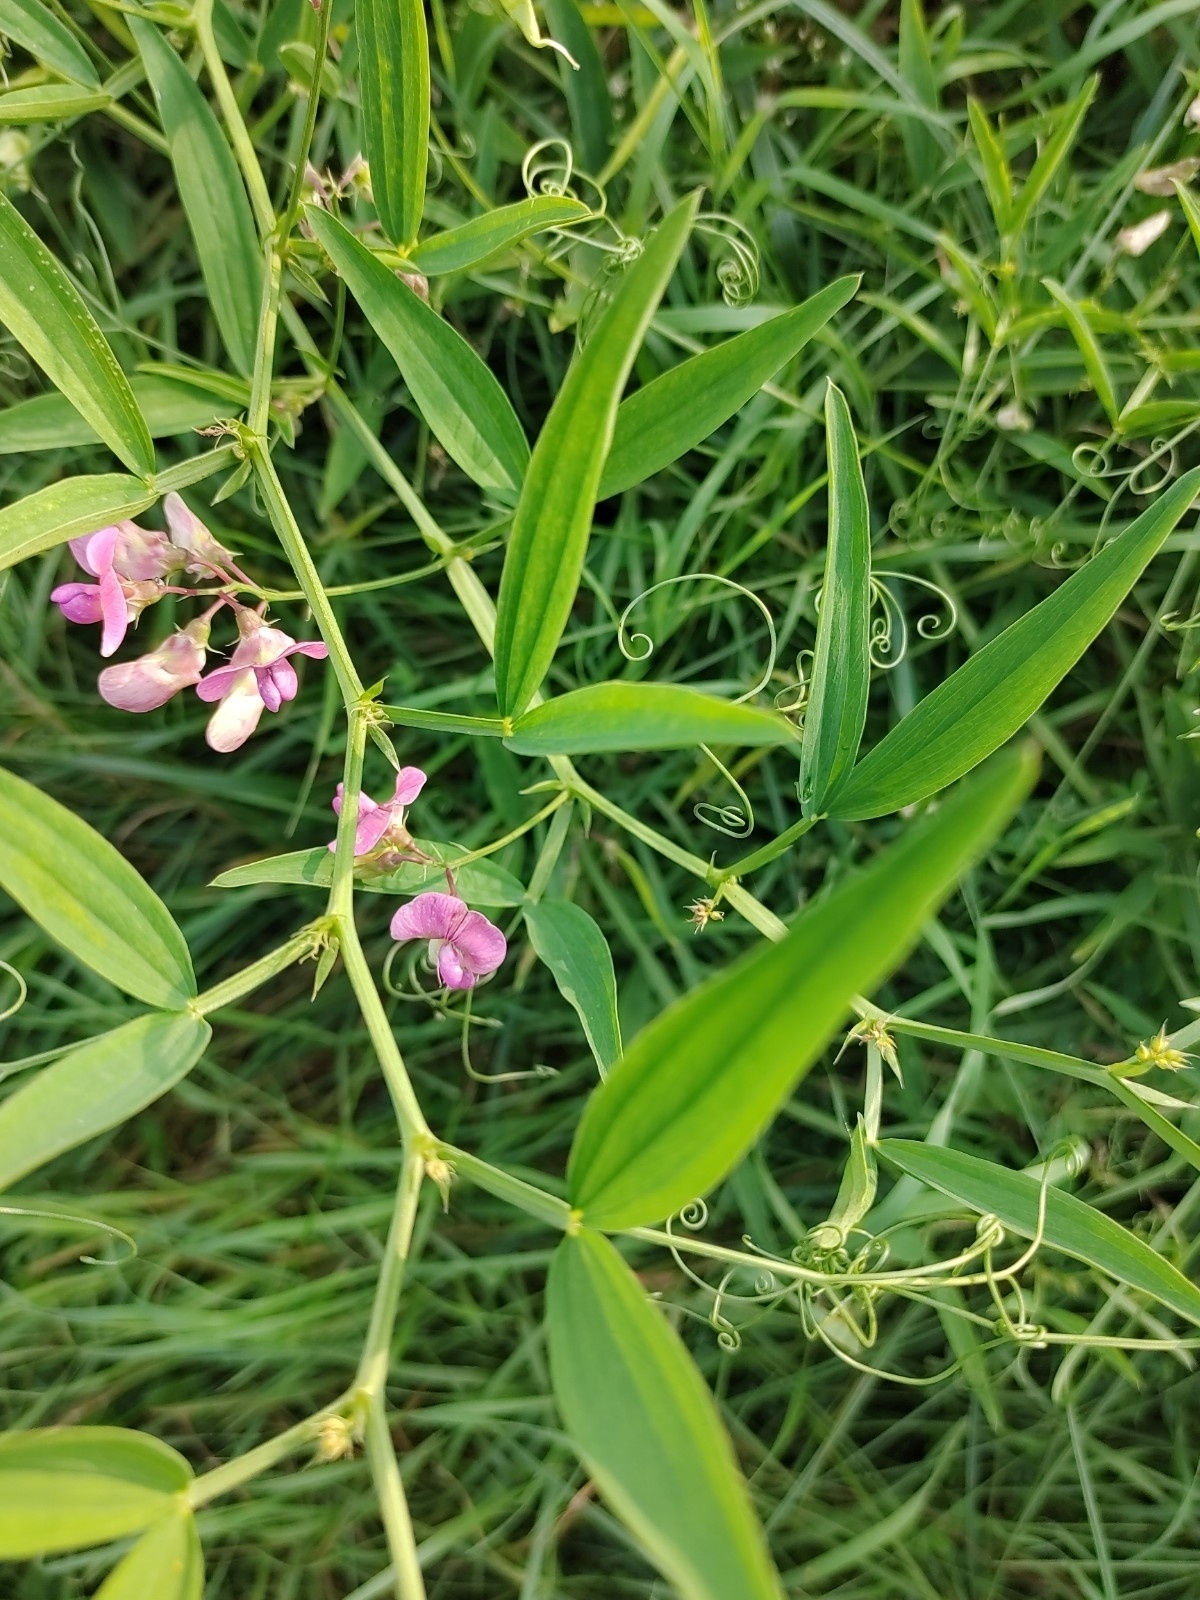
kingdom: Plantae
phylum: Tracheophyta
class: Magnoliopsida
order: Fabales
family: Fabaceae
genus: Lathyrus
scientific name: Lathyrus sylvestris
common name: Flat pea
